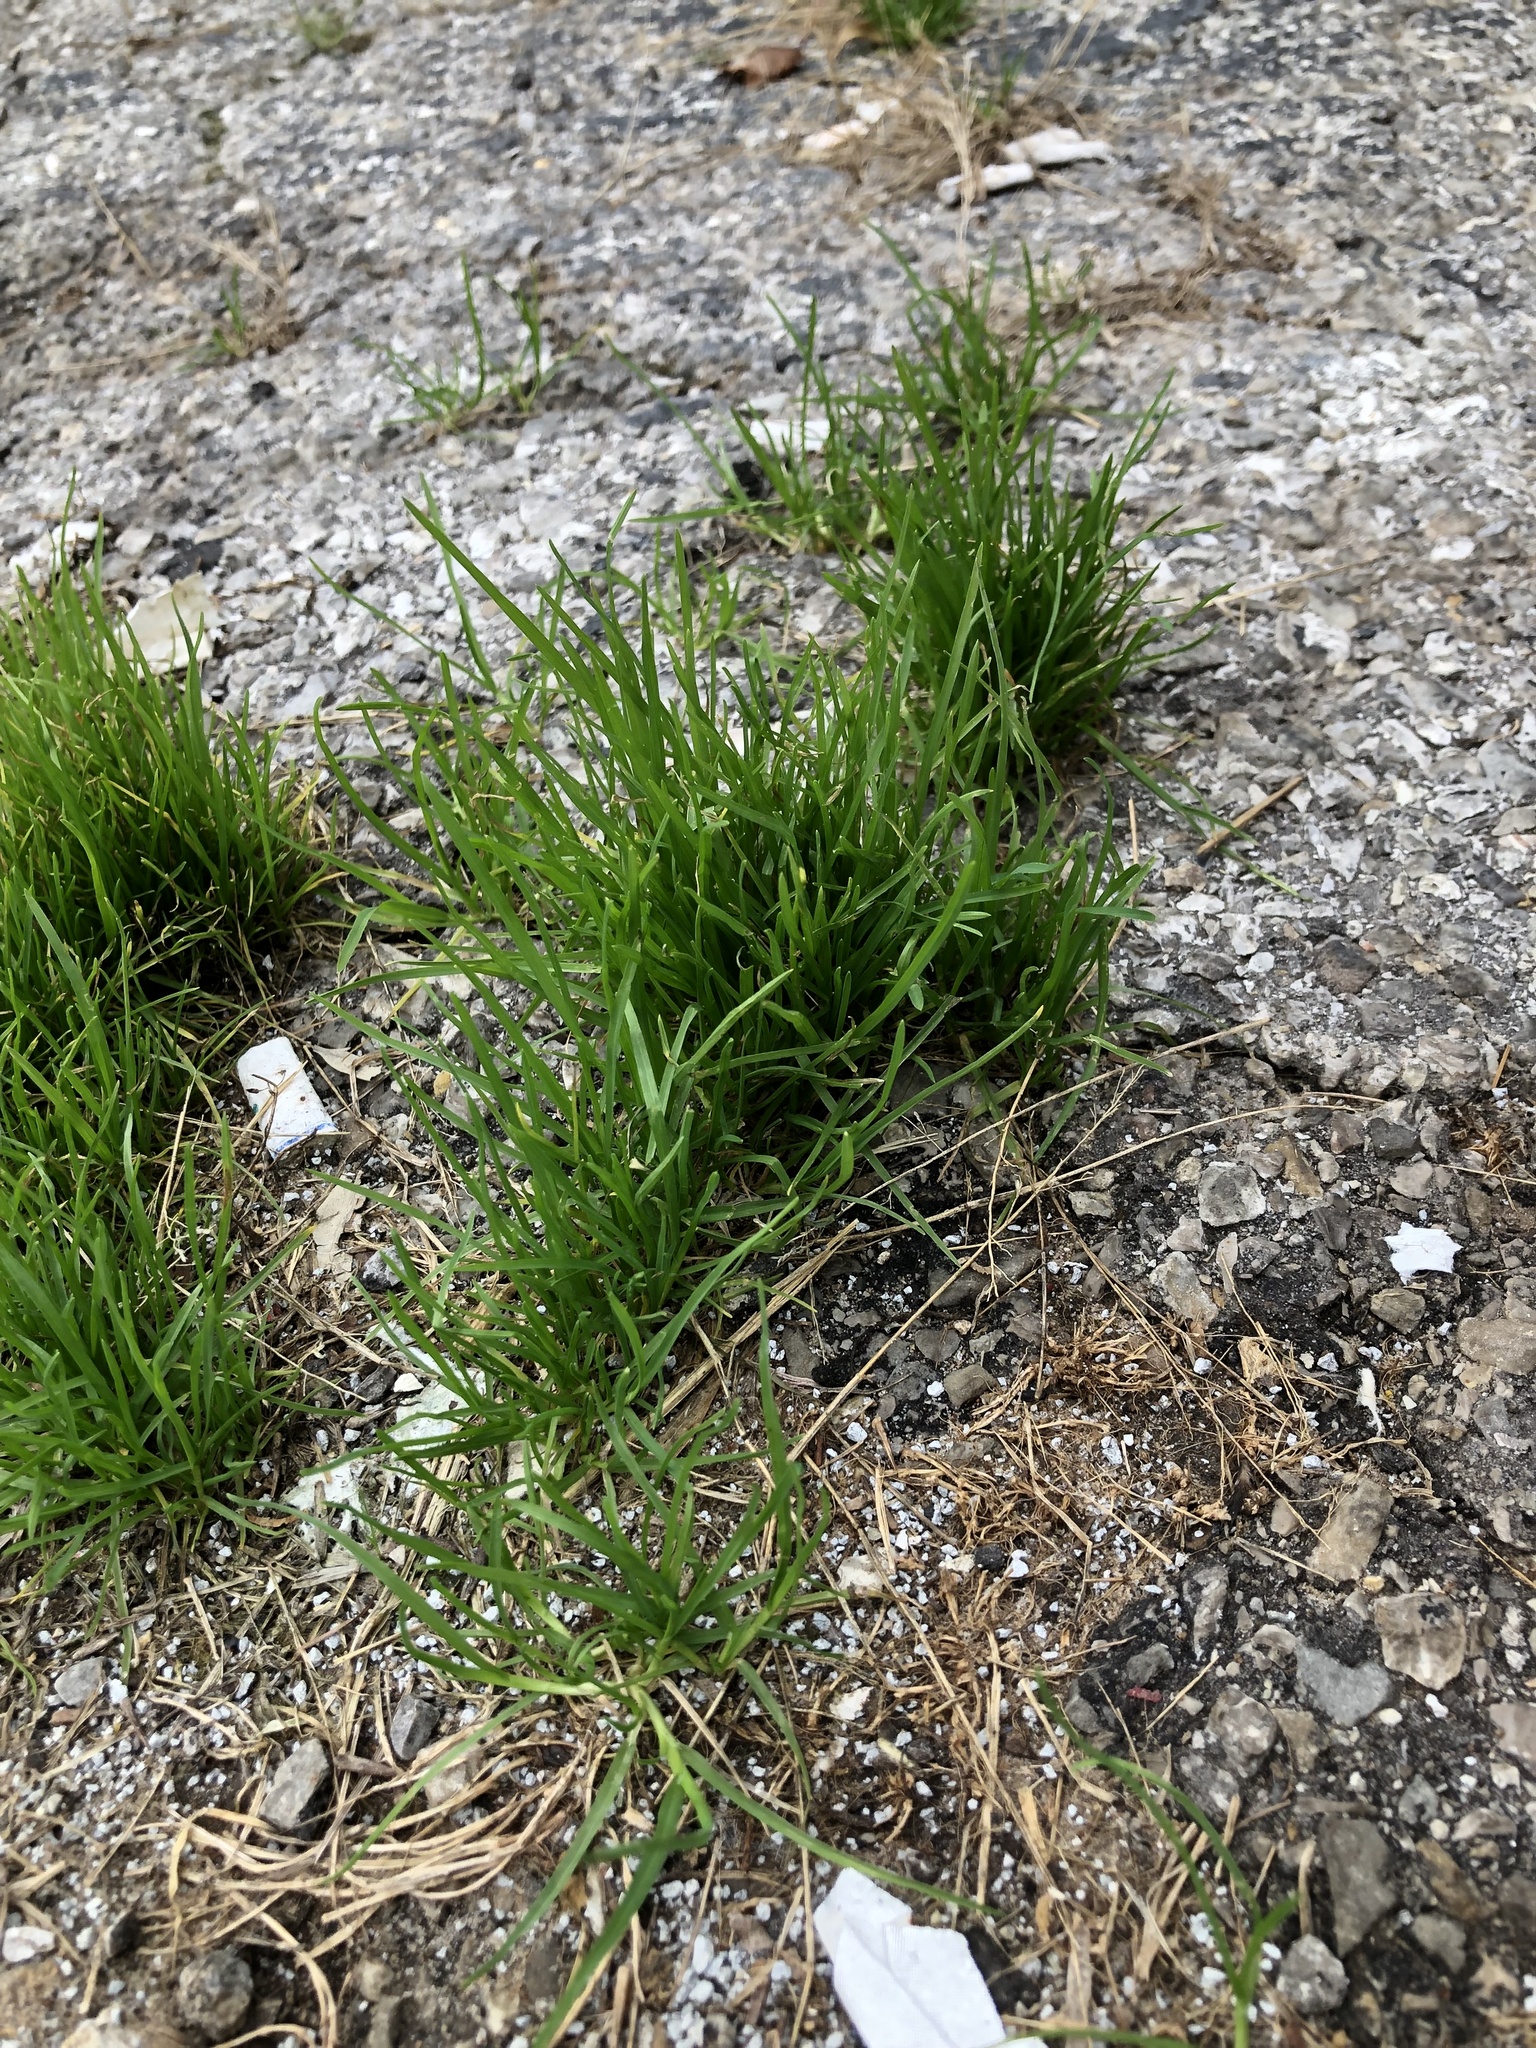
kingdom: Plantae
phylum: Tracheophyta
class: Liliopsida
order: Poales
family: Poaceae
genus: Poa
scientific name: Poa annua
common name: Annual bluegrass
